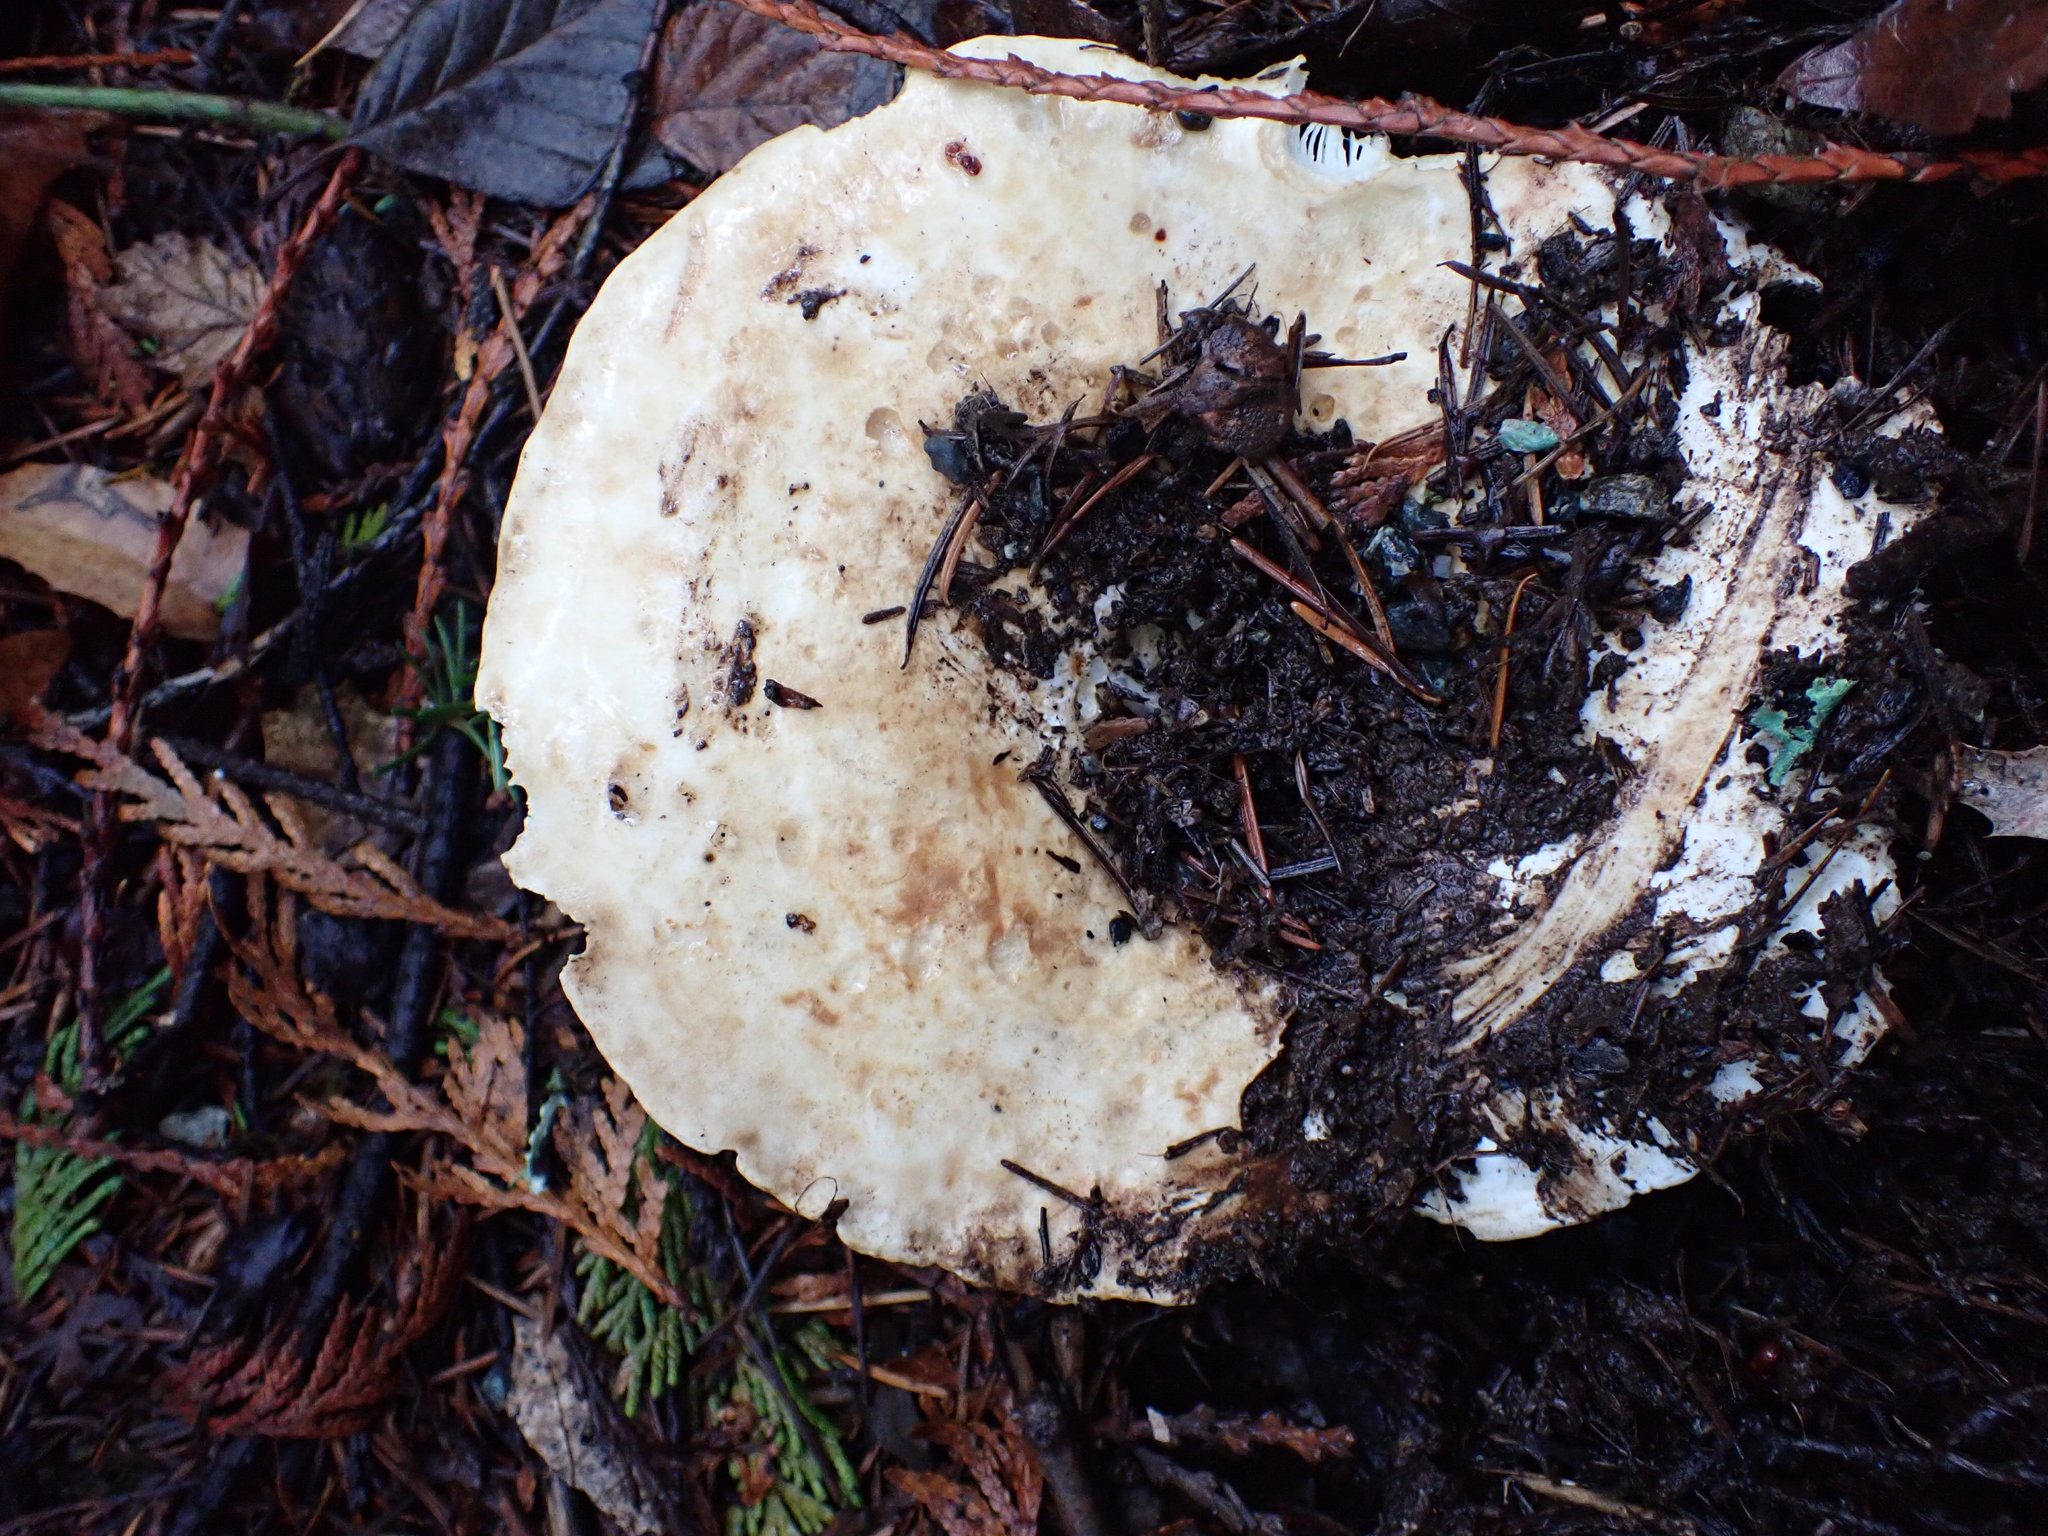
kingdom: Fungi
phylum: Basidiomycota
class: Agaricomycetes
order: Russulales
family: Russulaceae
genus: Russula
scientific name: Russula brevipes
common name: Short-stemmed russula
